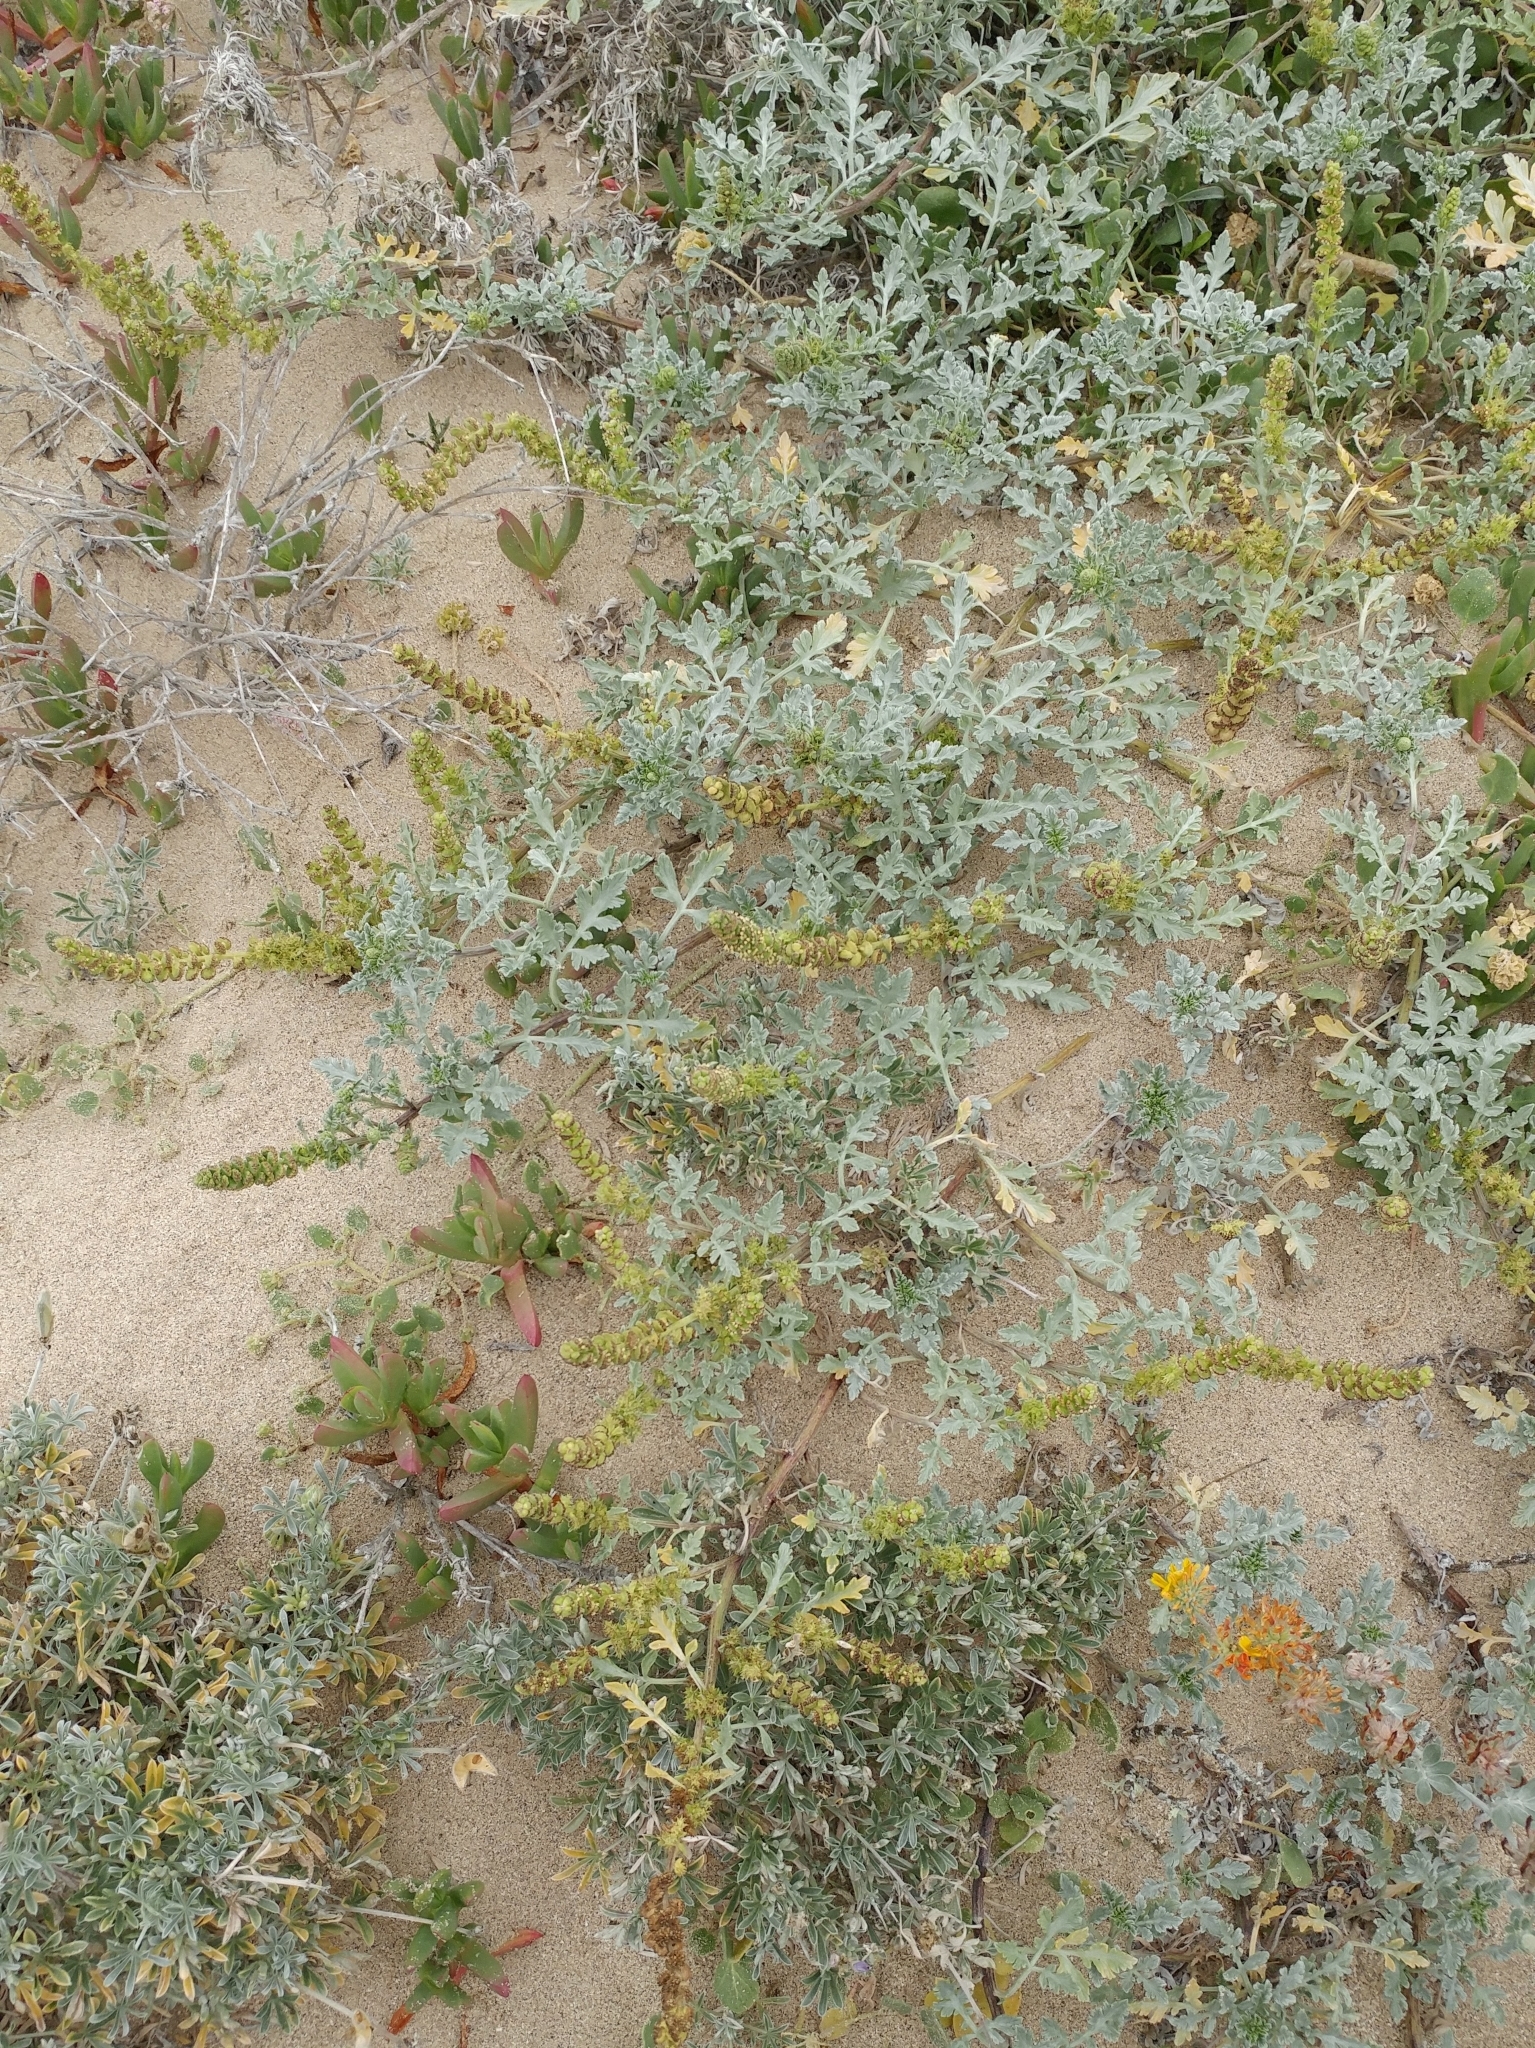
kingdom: Plantae
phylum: Tracheophyta
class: Magnoliopsida
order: Asterales
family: Asteraceae
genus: Ambrosia
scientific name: Ambrosia chamissonis
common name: Beachbur
